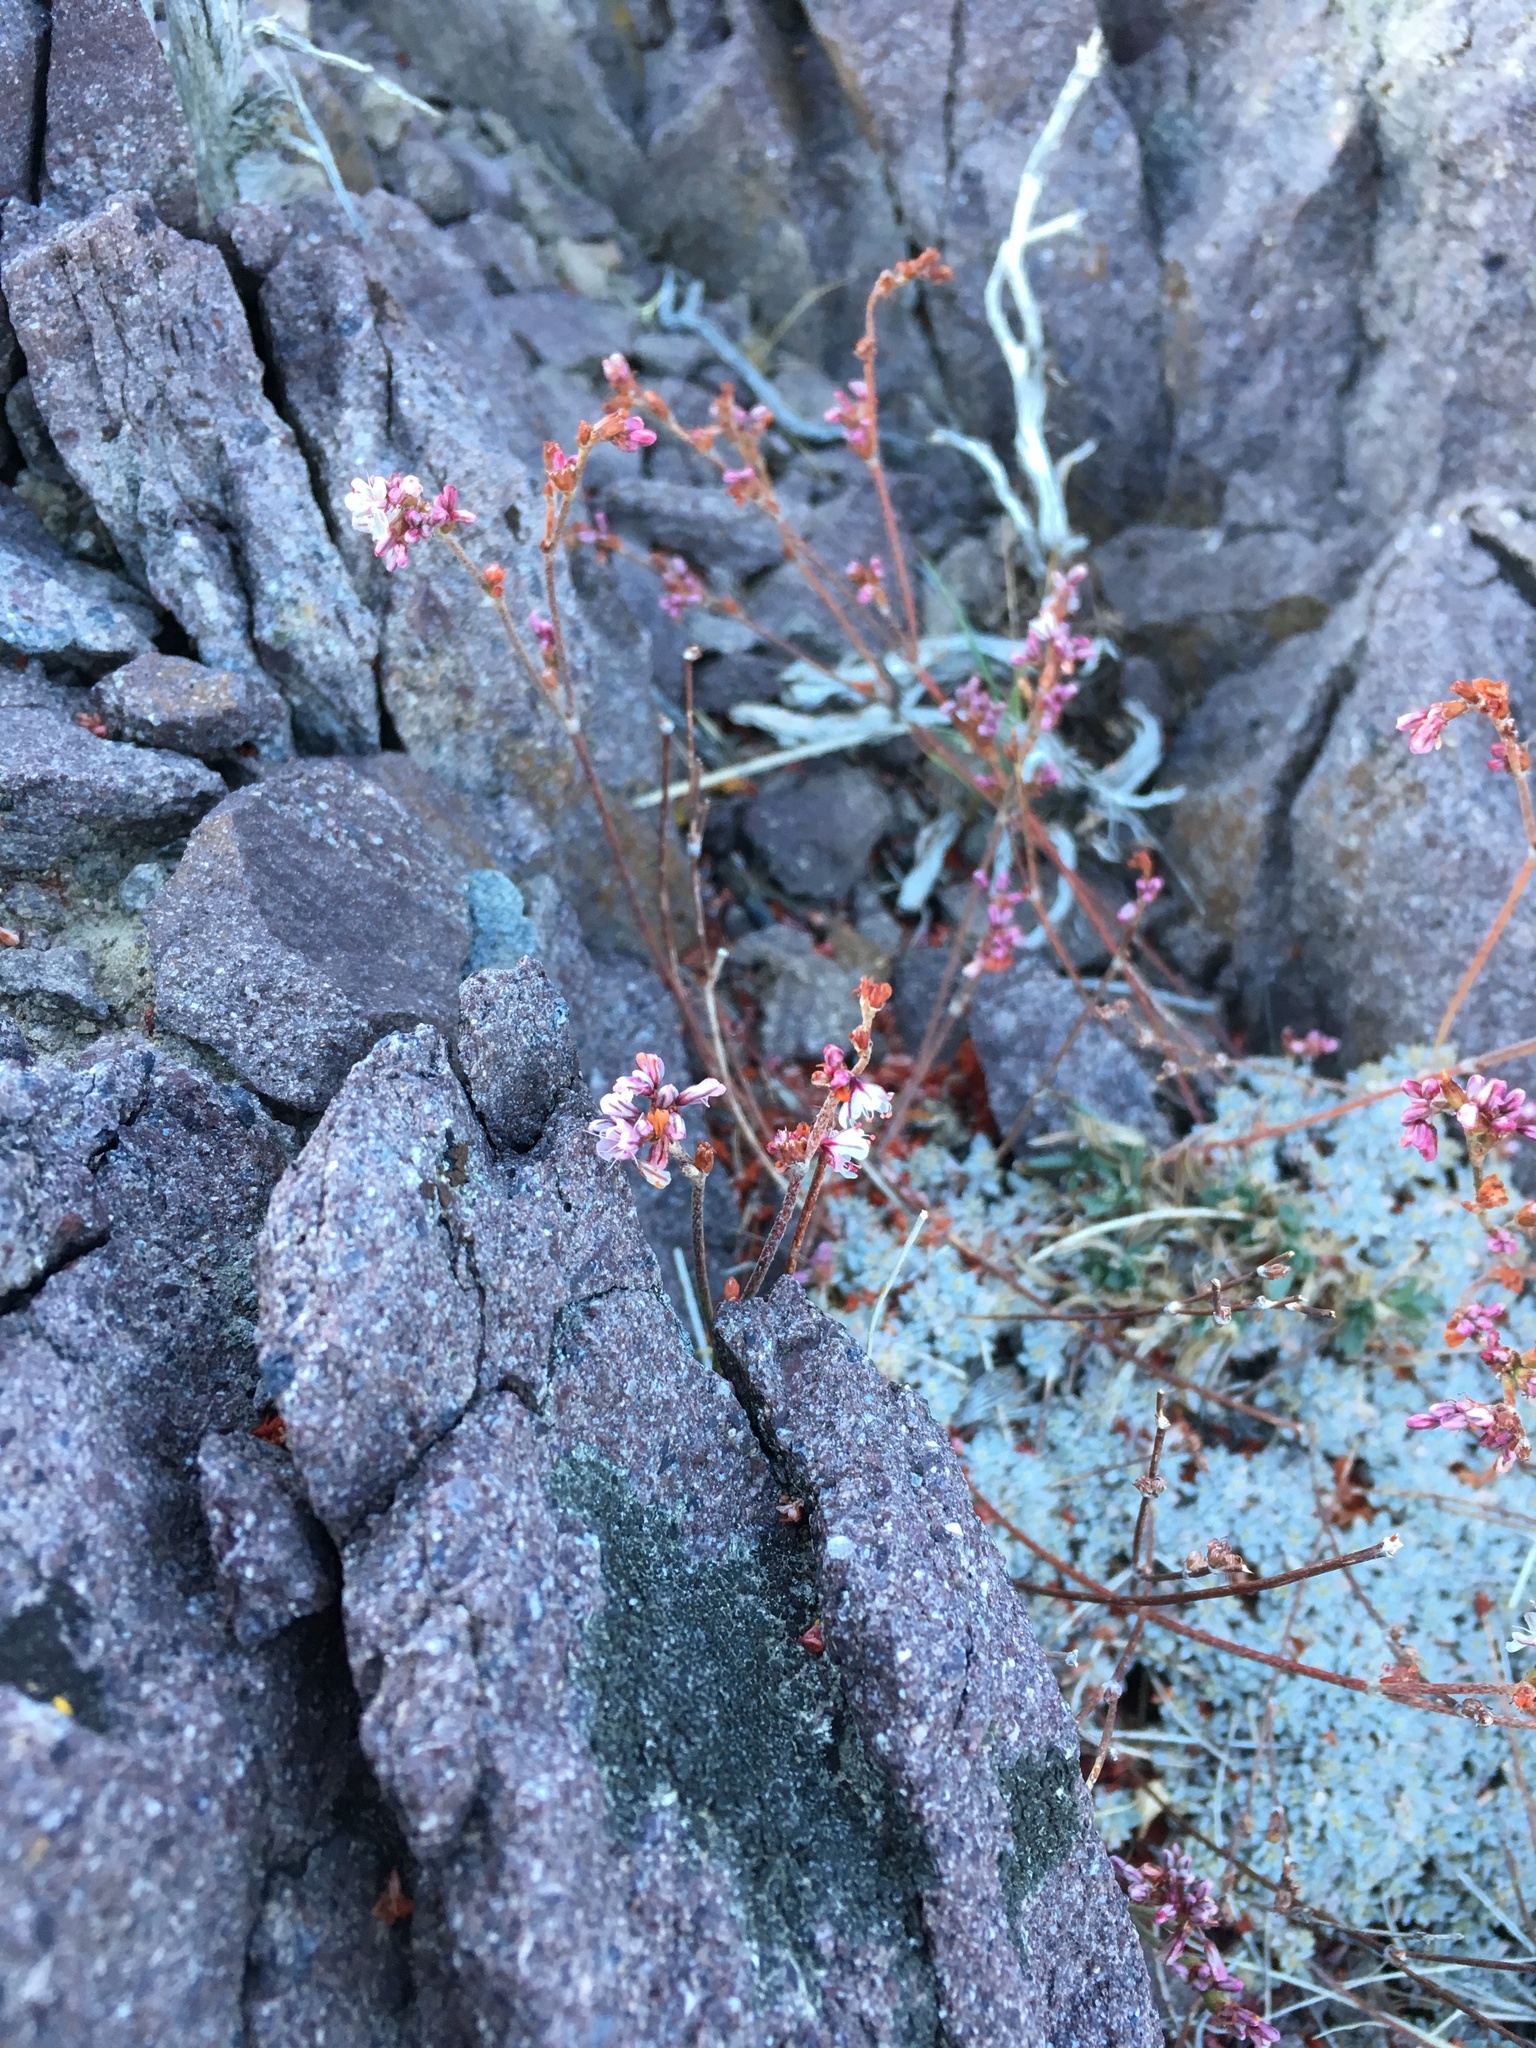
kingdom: Plantae
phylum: Tracheophyta
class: Magnoliopsida
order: Caryophyllales
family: Polygonaceae
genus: Eriogonum
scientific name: Eriogonum wrightii
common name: Bastard-sage
